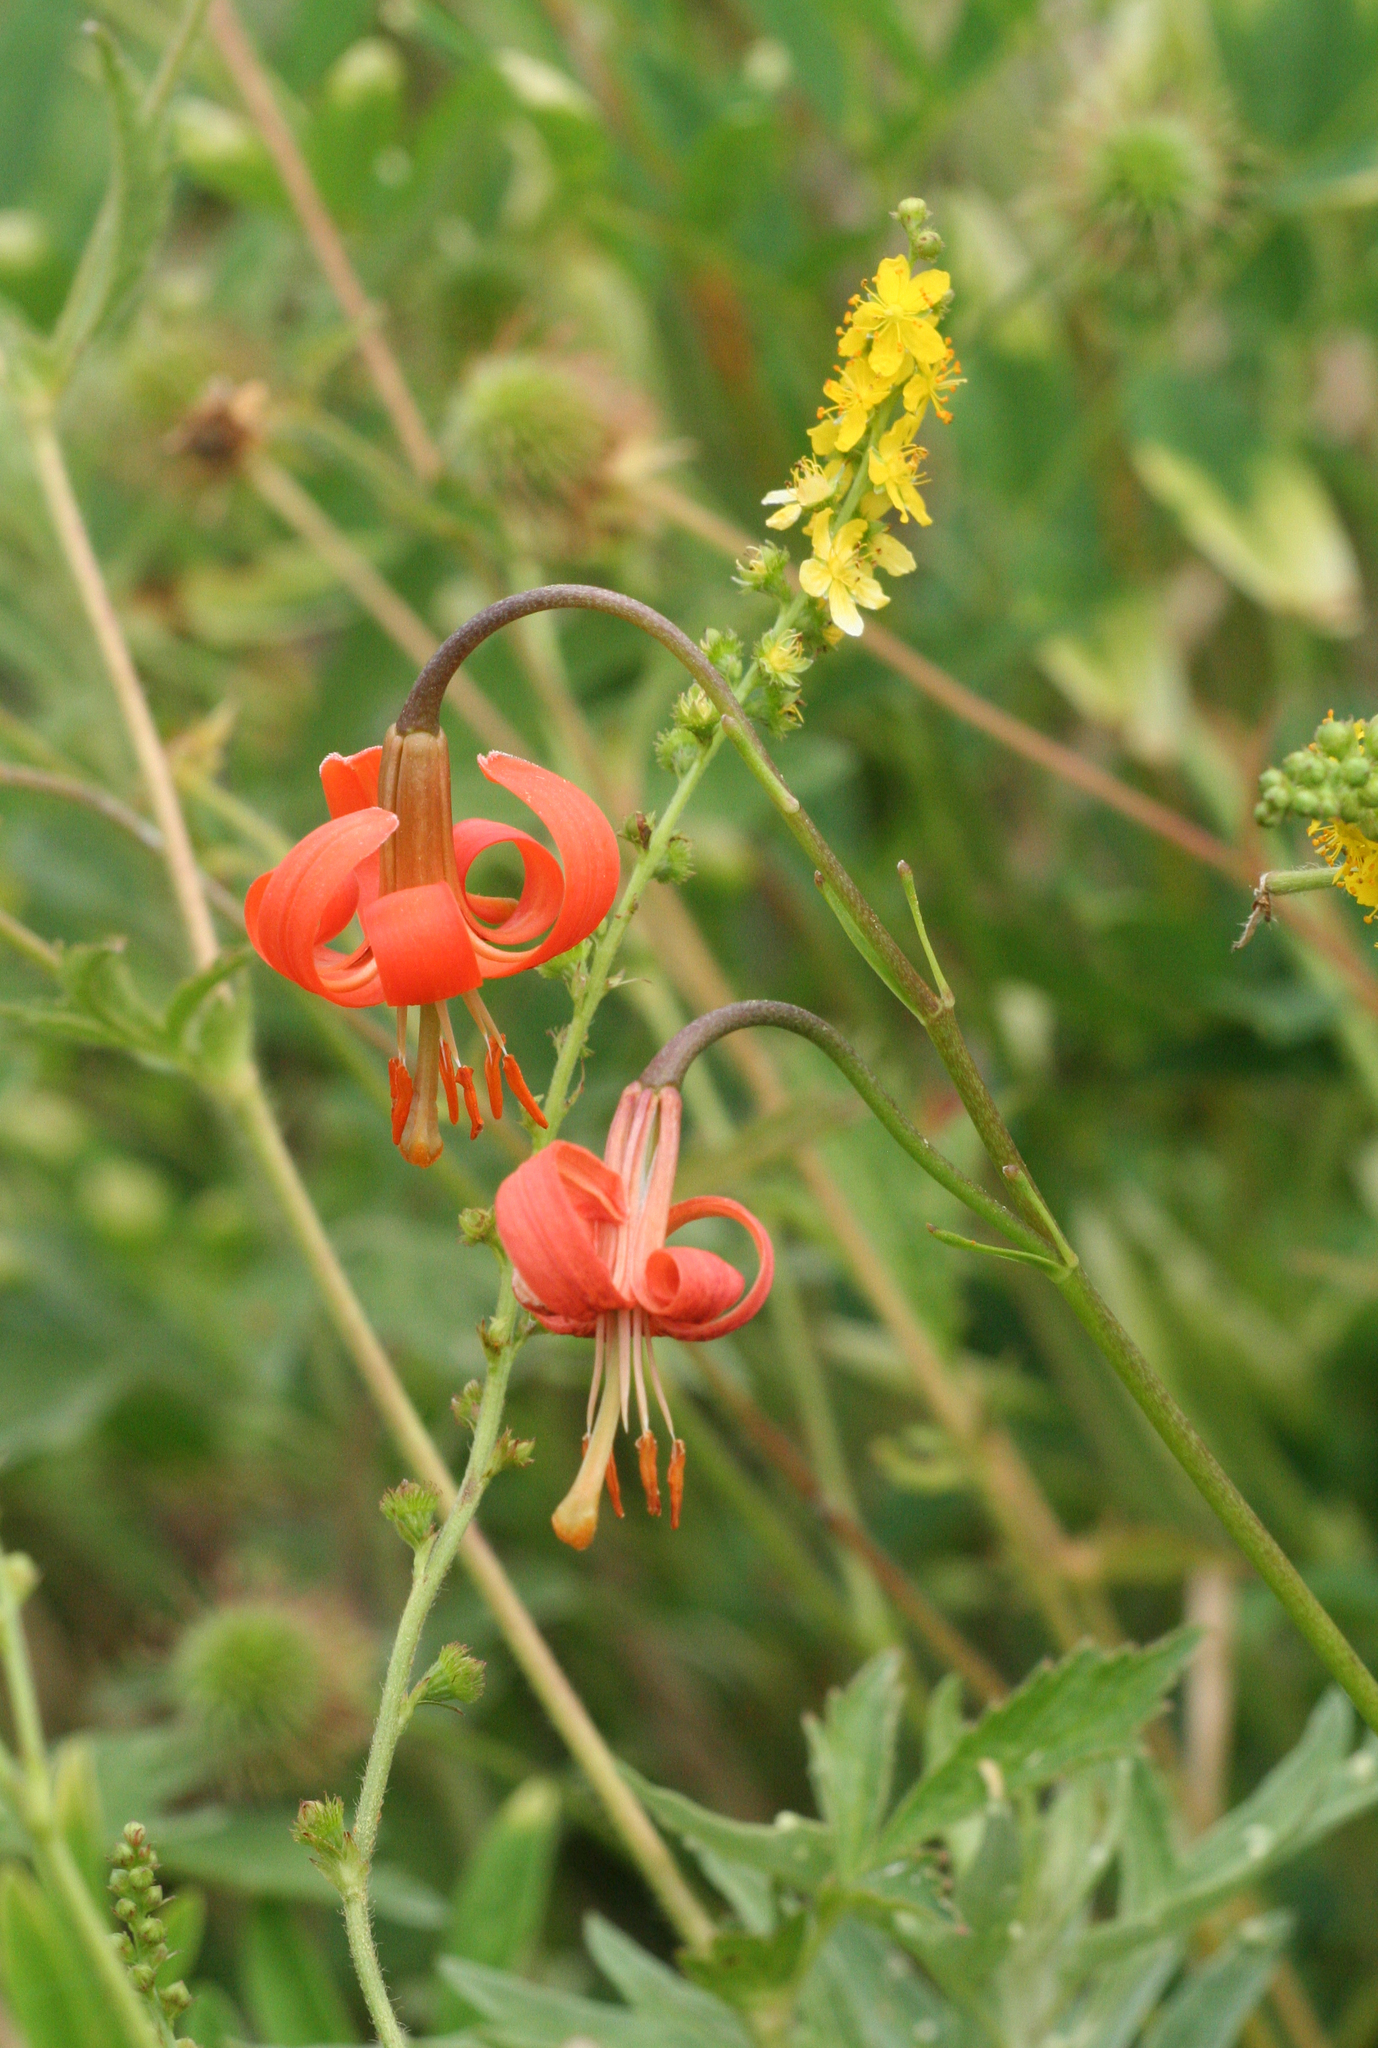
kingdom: Plantae
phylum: Tracheophyta
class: Liliopsida
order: Liliales
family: Liliaceae
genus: Lilium
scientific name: Lilium callosum
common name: Slim-stem lily
